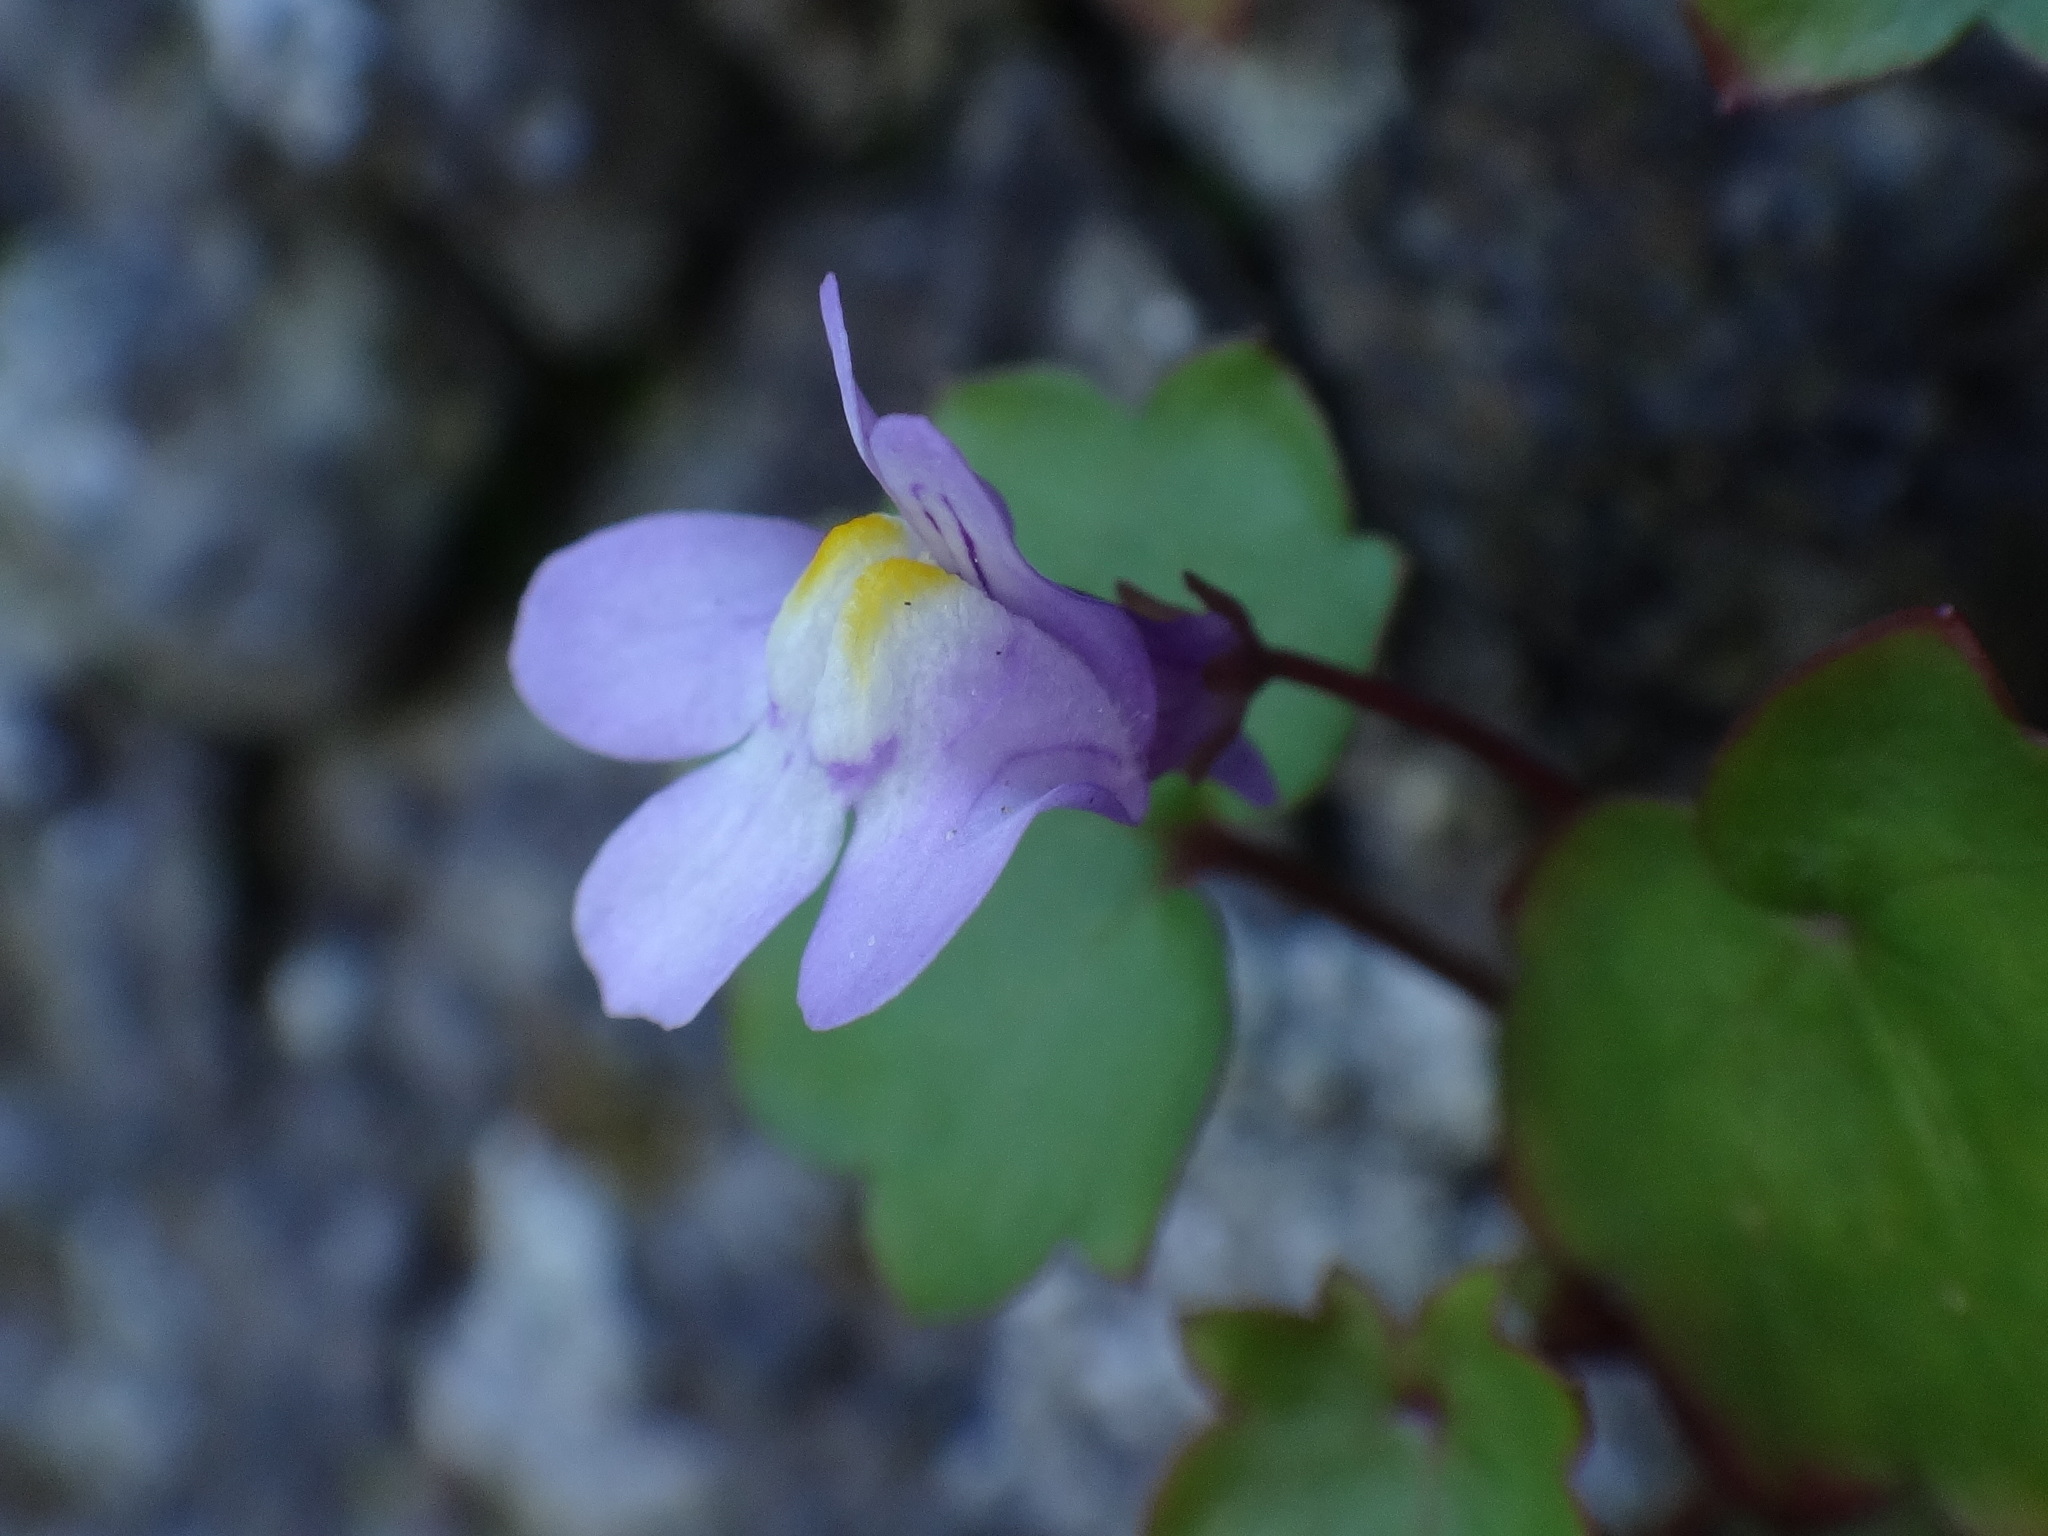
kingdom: Plantae
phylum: Tracheophyta
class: Magnoliopsida
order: Lamiales
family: Plantaginaceae
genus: Cymbalaria
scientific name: Cymbalaria muralis
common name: Ivy-leaved toadflax
